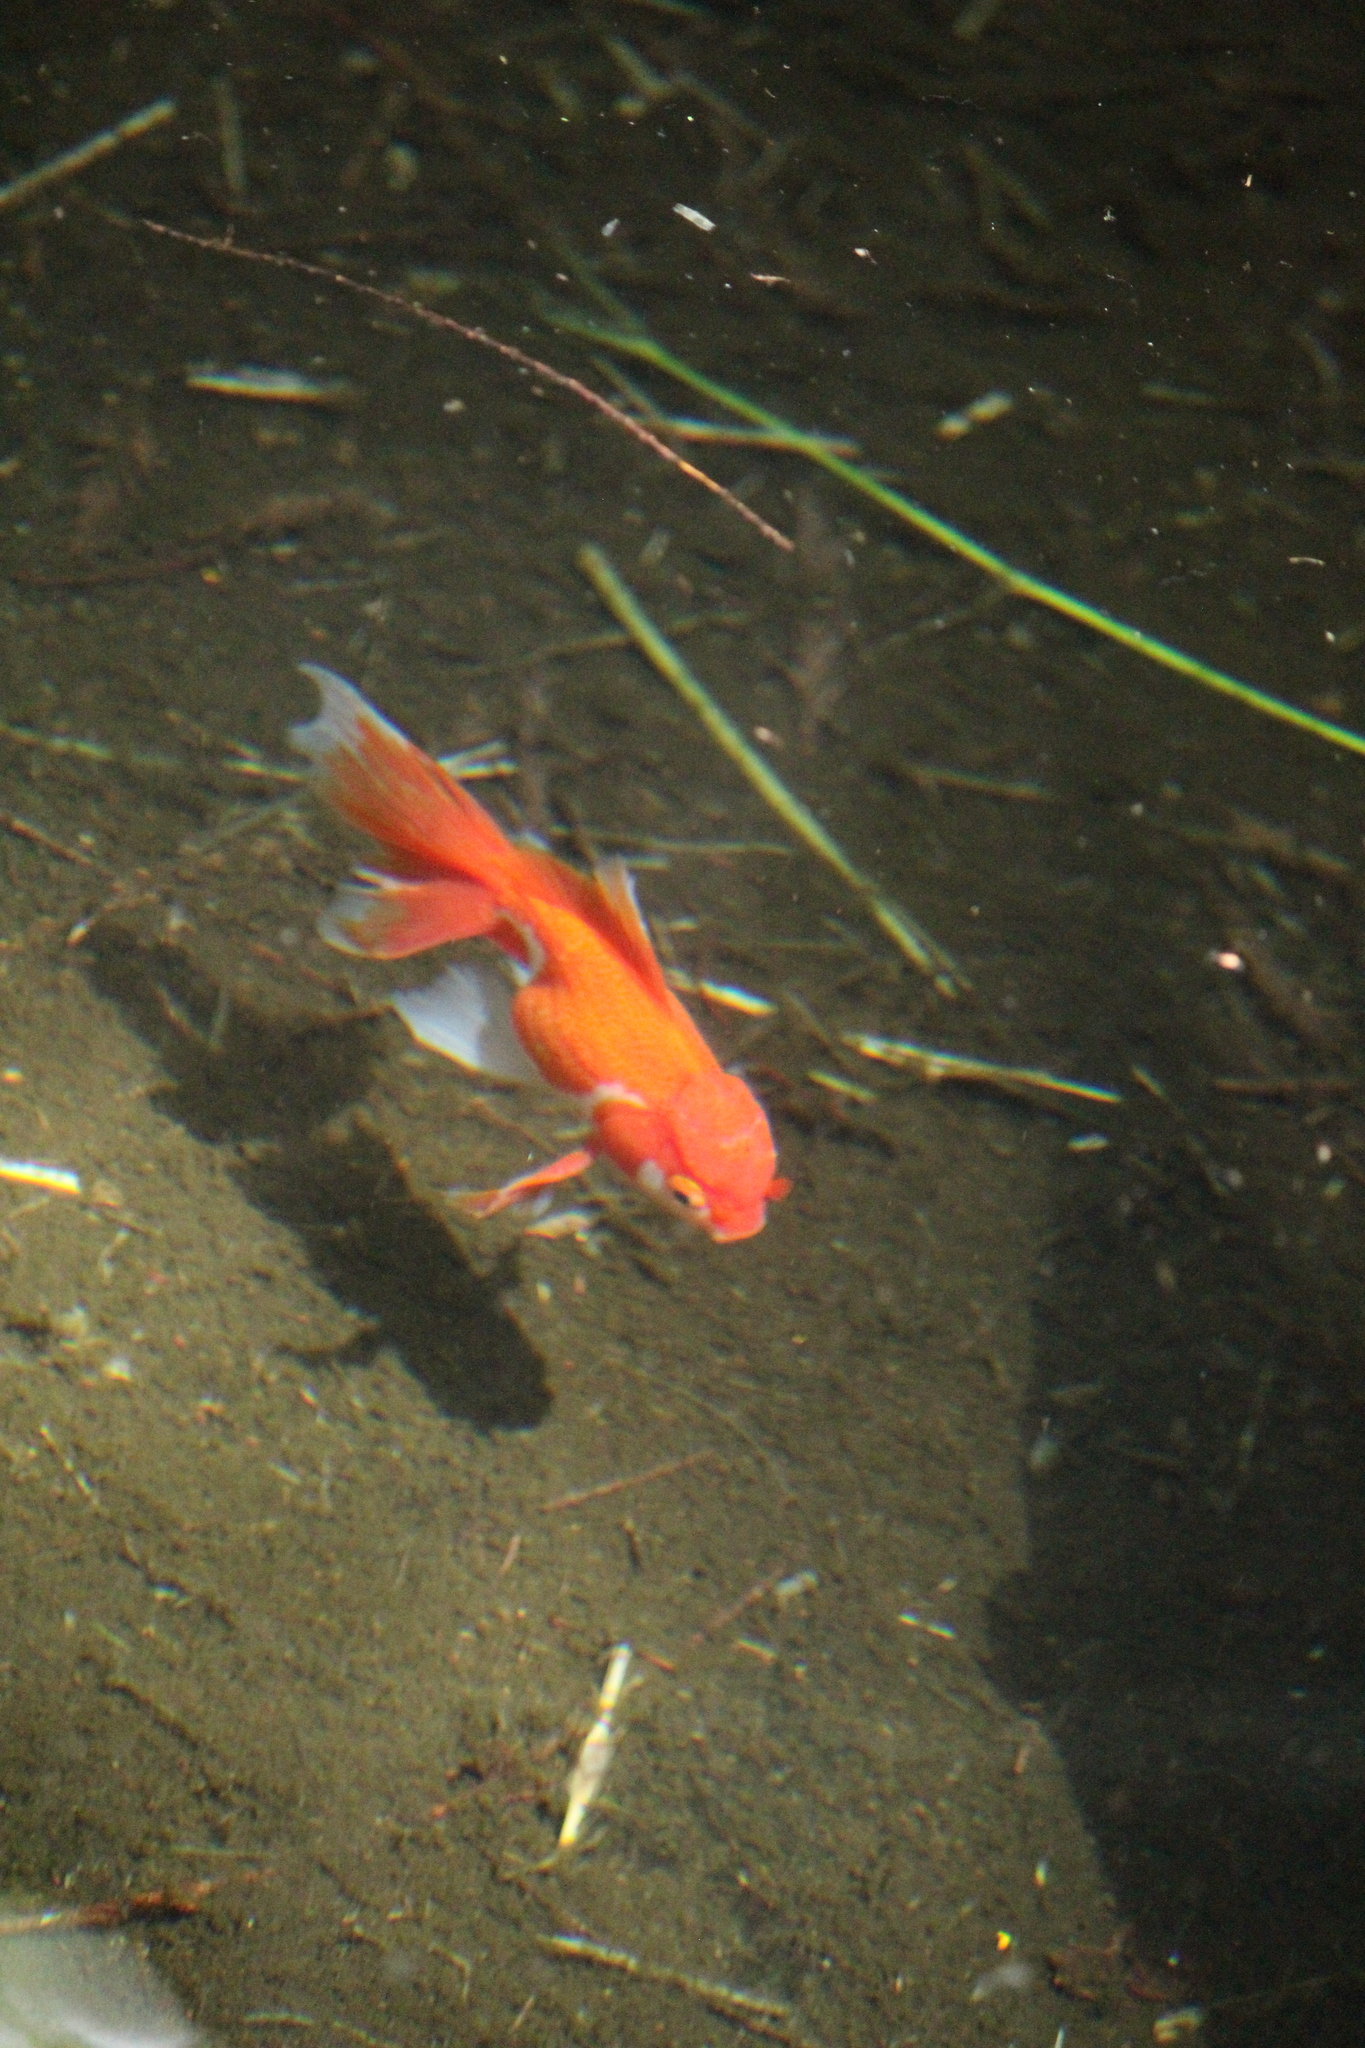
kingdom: Animalia
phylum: Chordata
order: Cypriniformes
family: Cyprinidae
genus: Carassius
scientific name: Carassius auratus
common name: Goldfish
